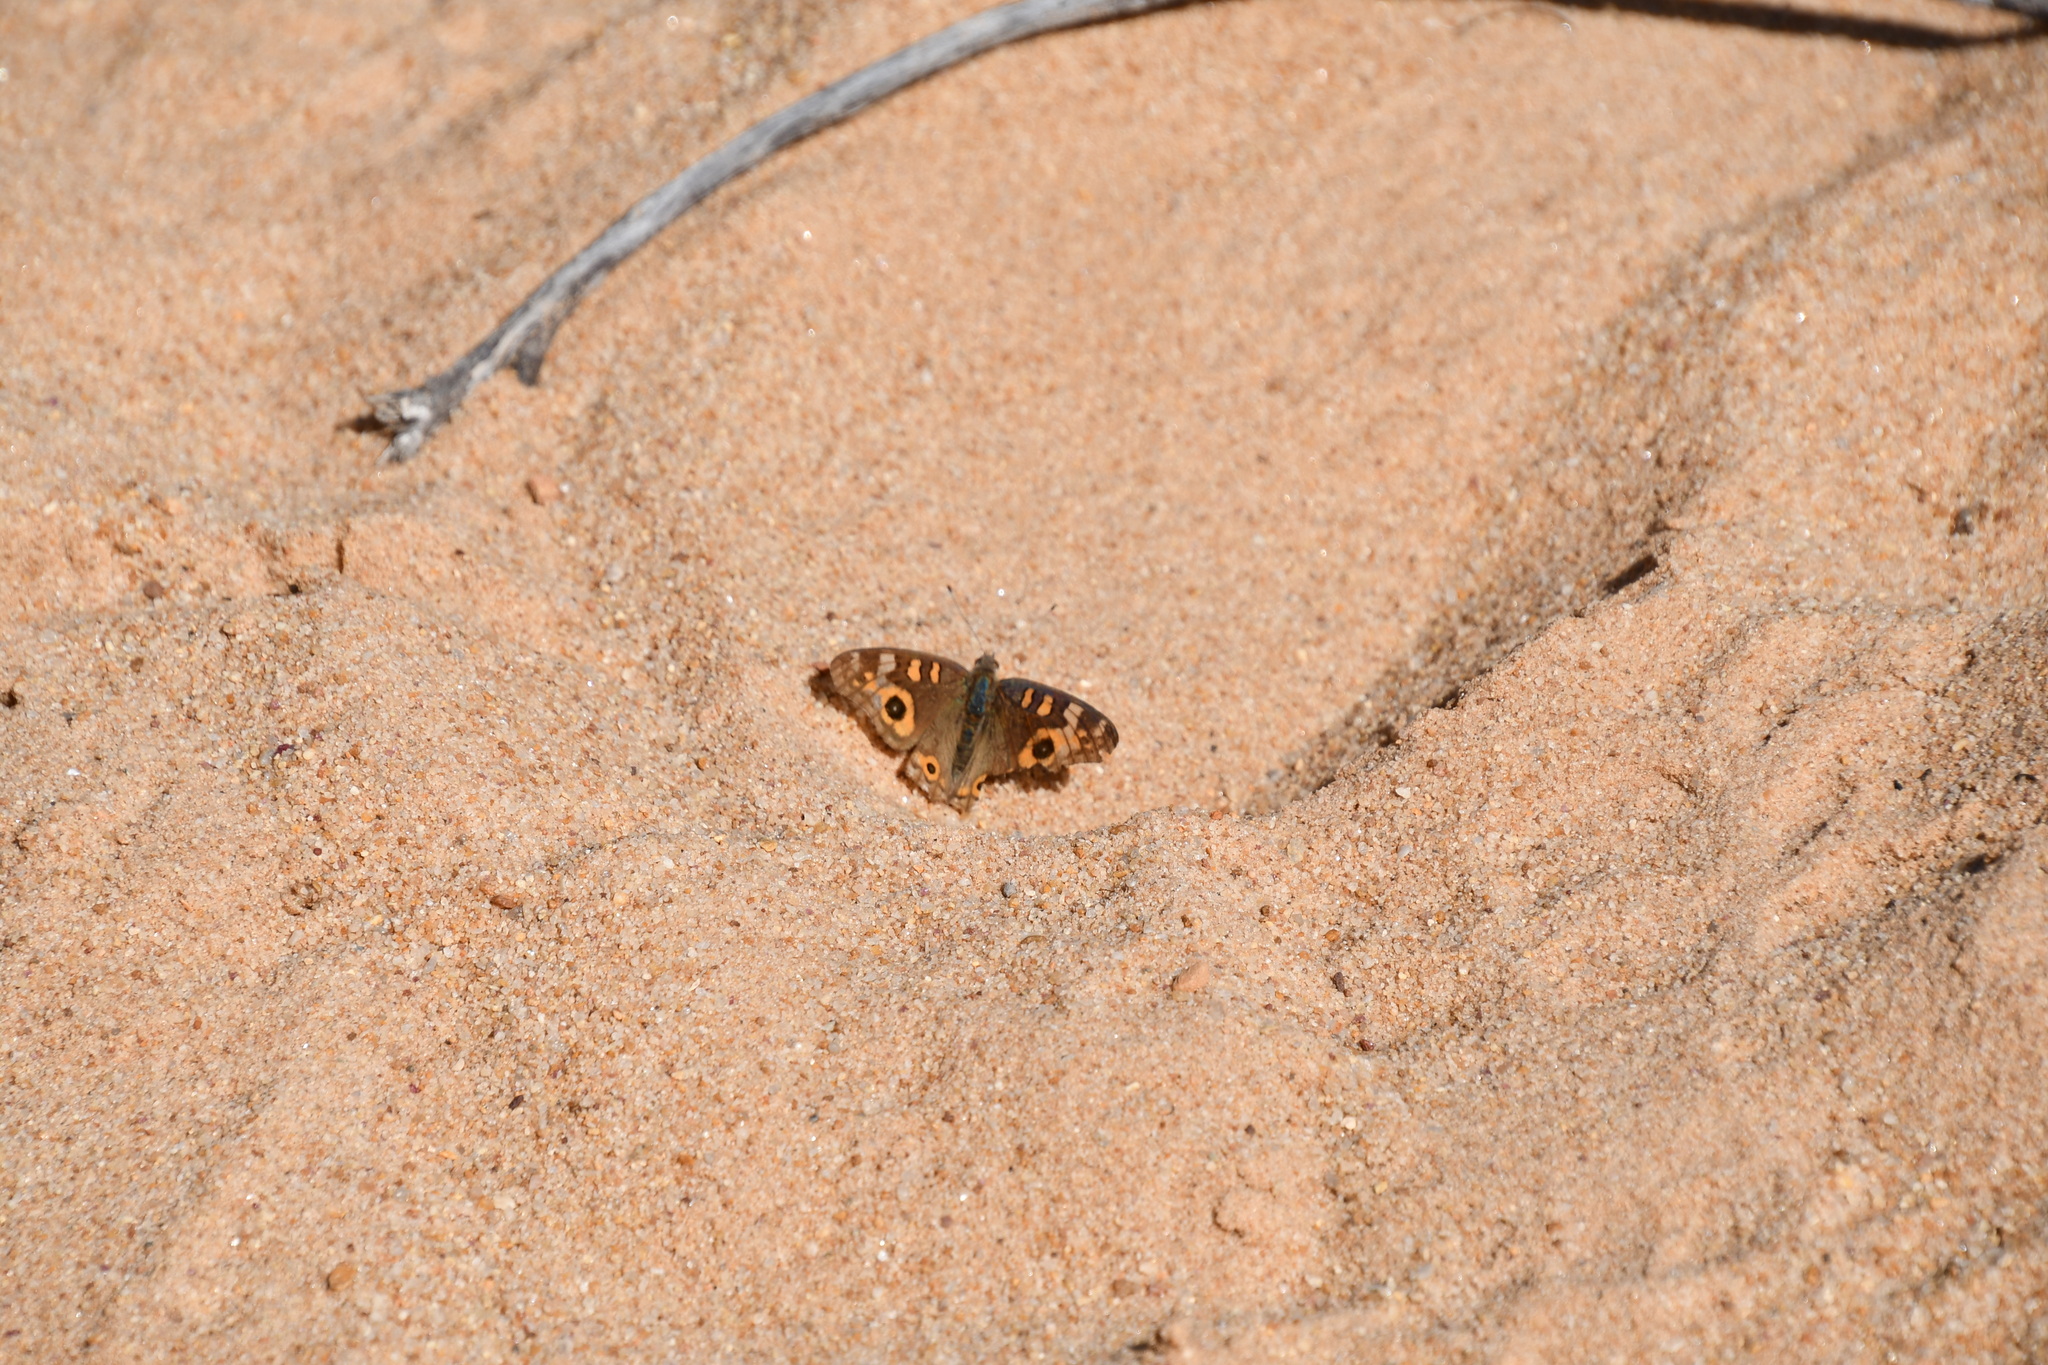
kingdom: Animalia
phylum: Arthropoda
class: Insecta
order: Lepidoptera
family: Nymphalidae
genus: Junonia
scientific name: Junonia villida
